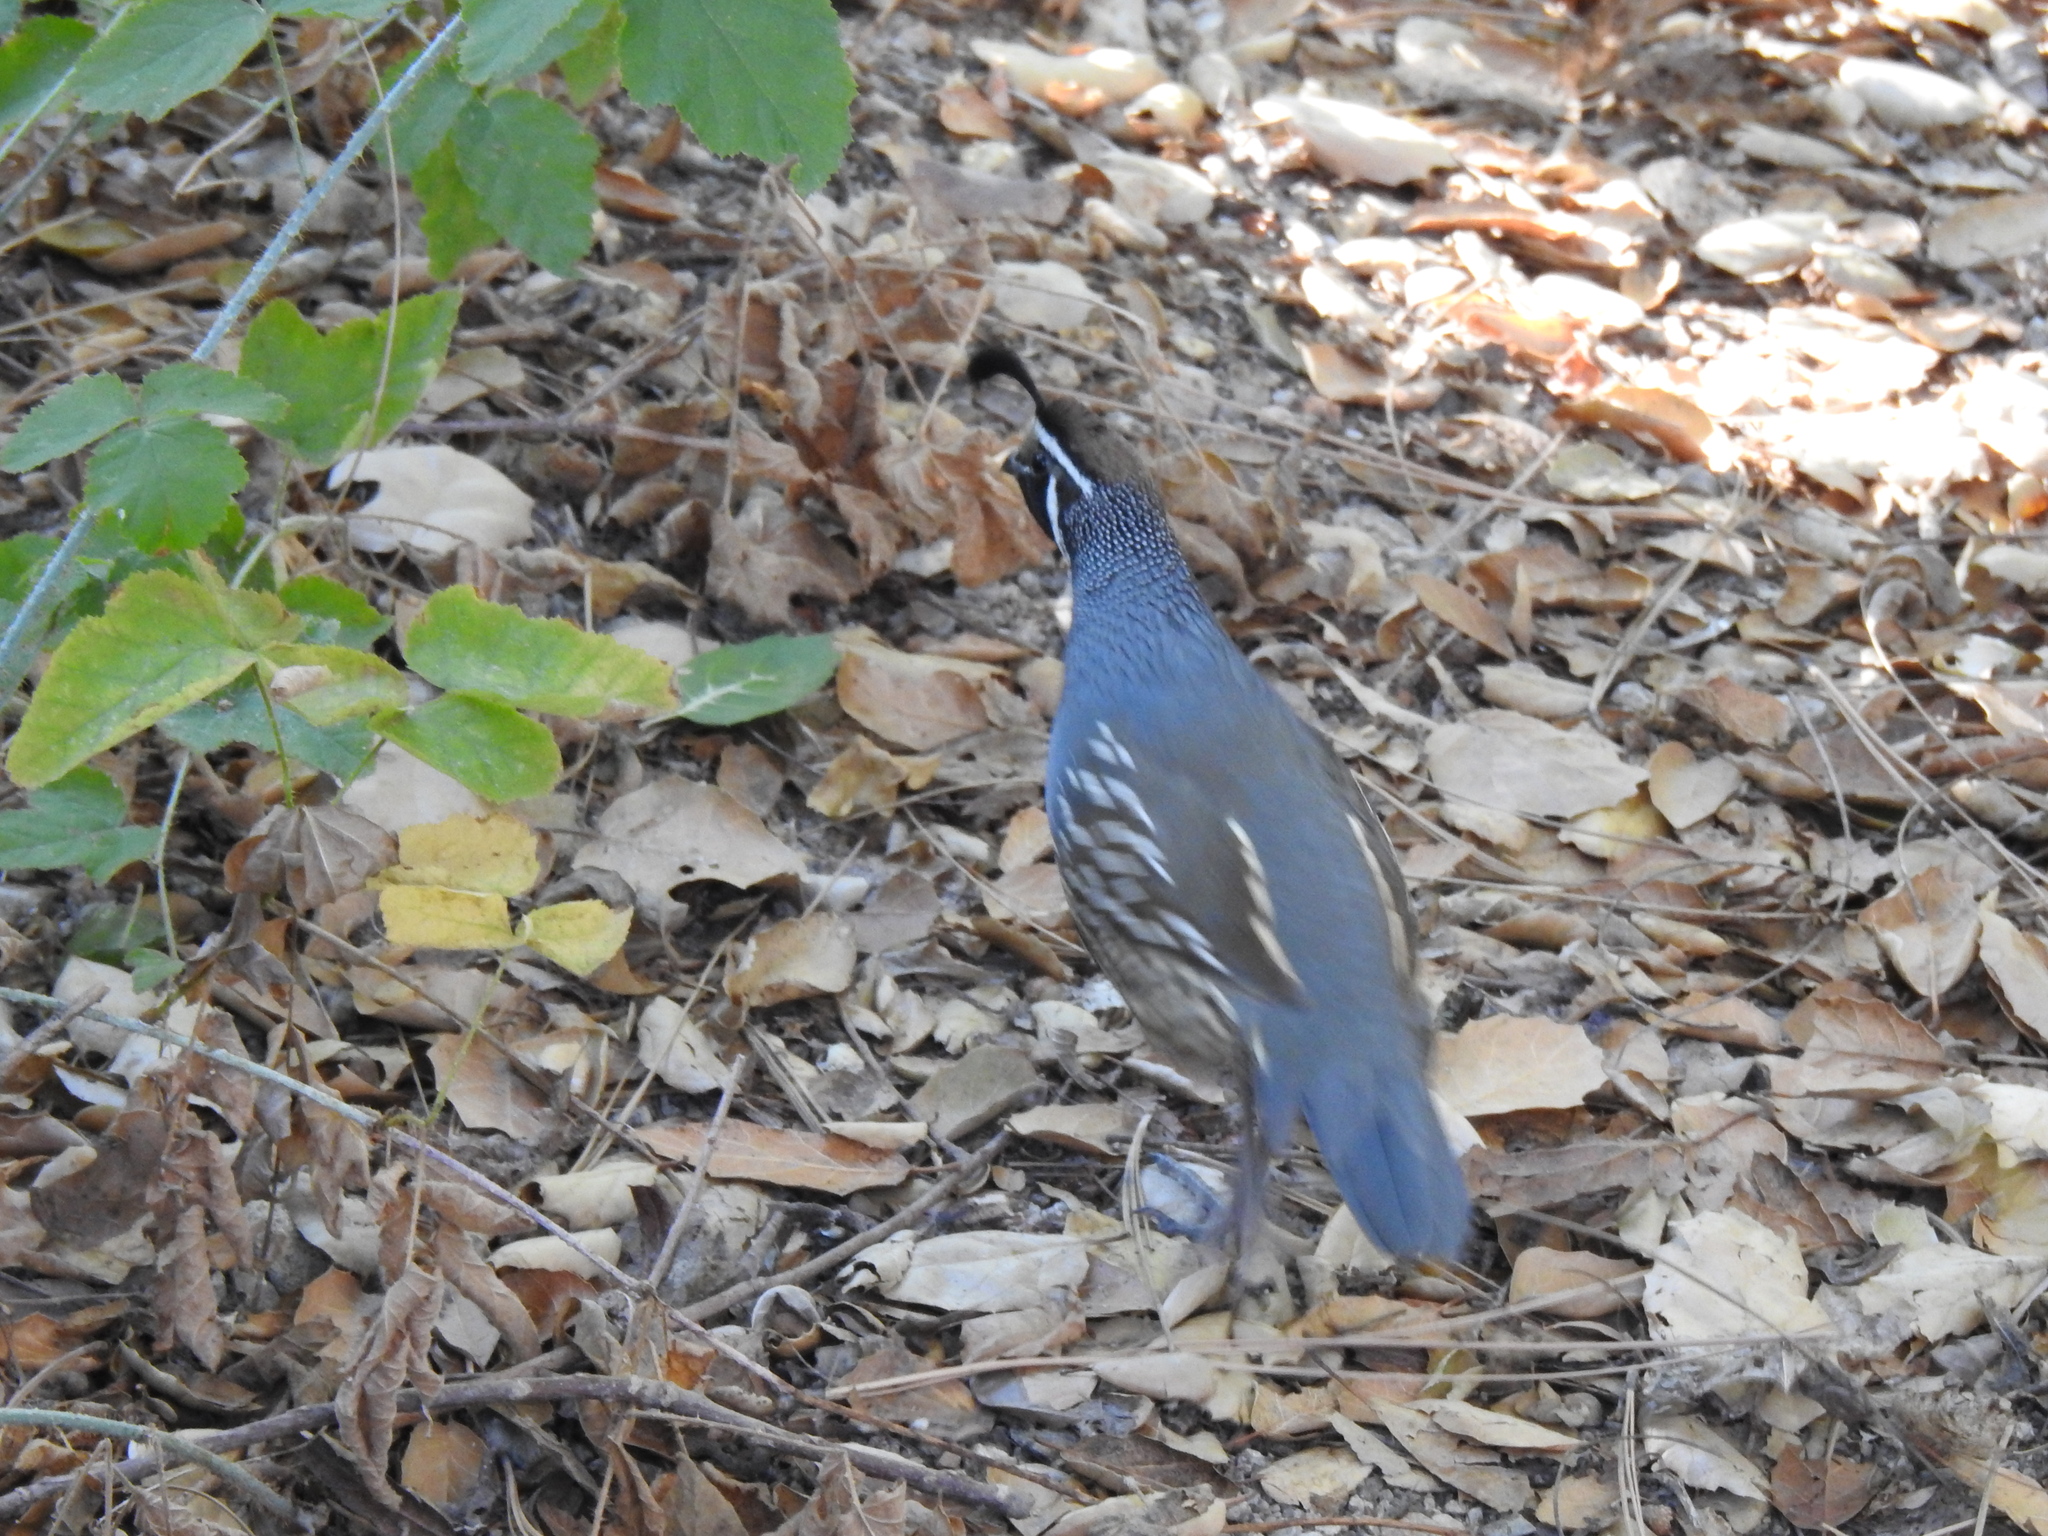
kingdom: Animalia
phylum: Chordata
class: Aves
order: Galliformes
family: Odontophoridae
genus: Callipepla
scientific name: Callipepla californica
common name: California quail
